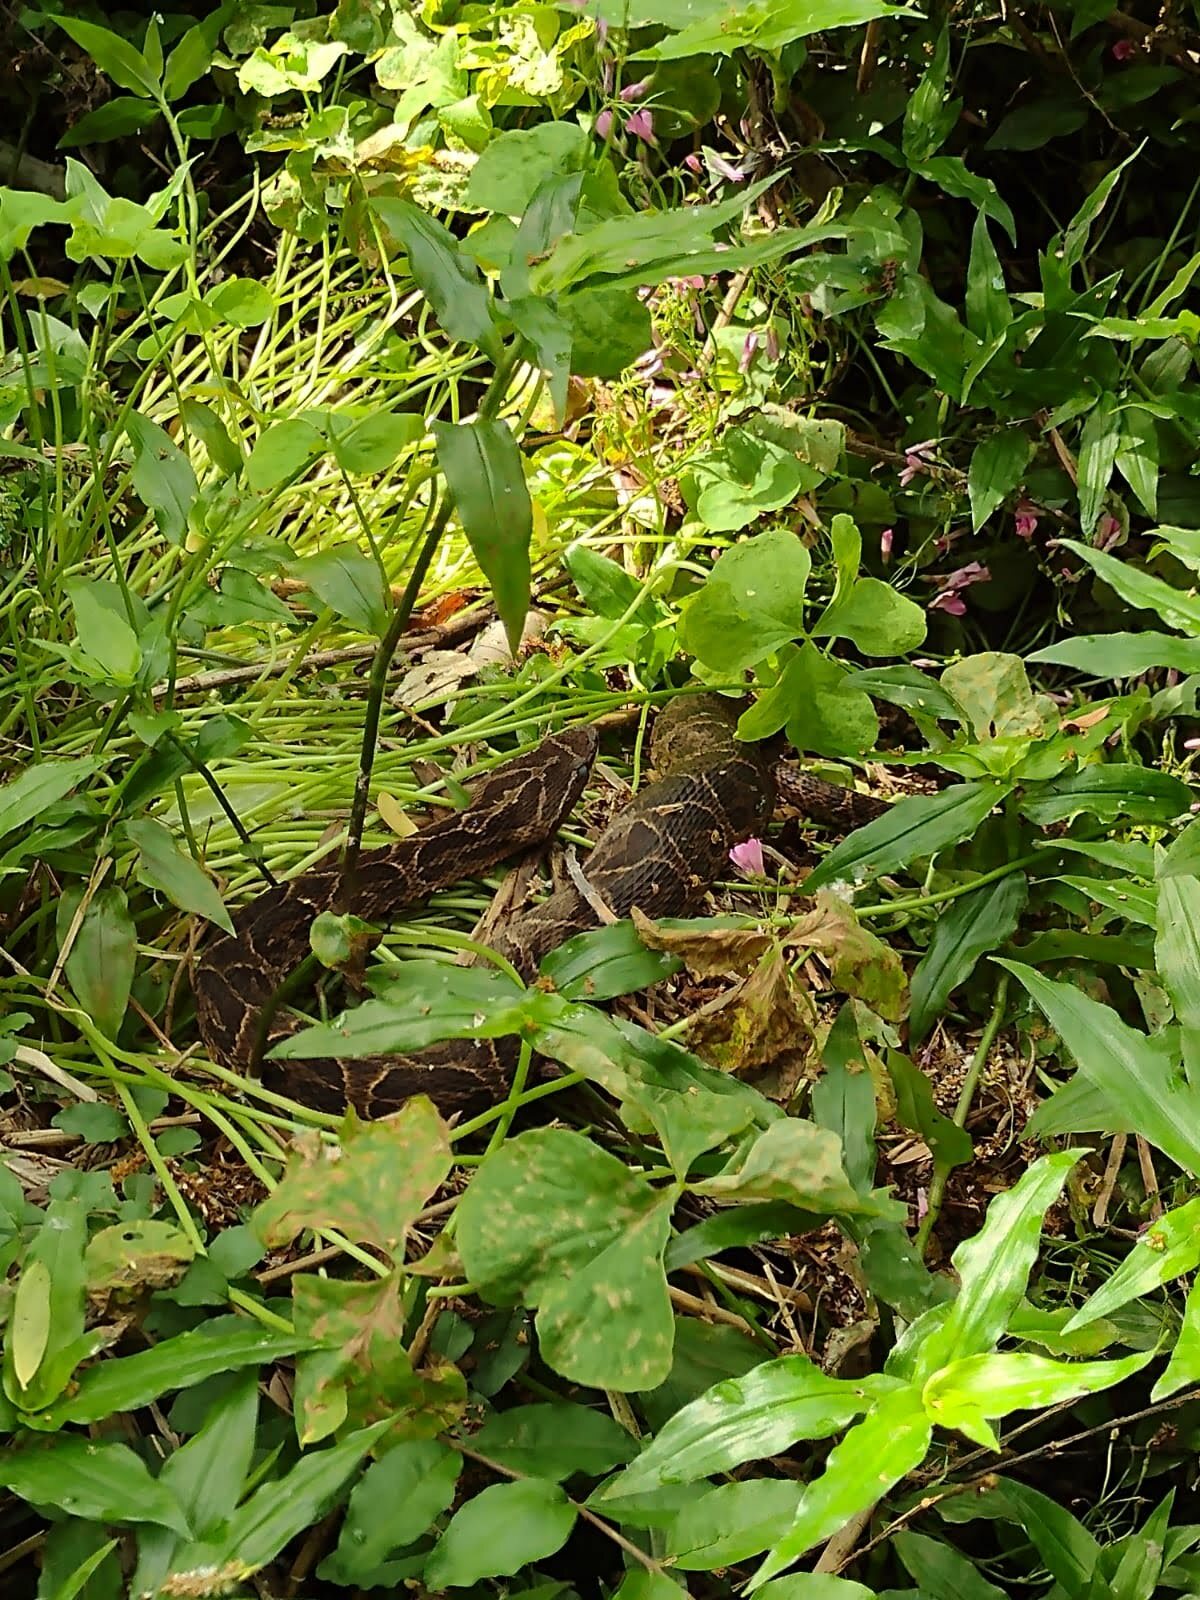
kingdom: Animalia
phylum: Chordata
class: Squamata
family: Viperidae
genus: Bothrops
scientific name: Bothrops alternatus
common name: Urutu
